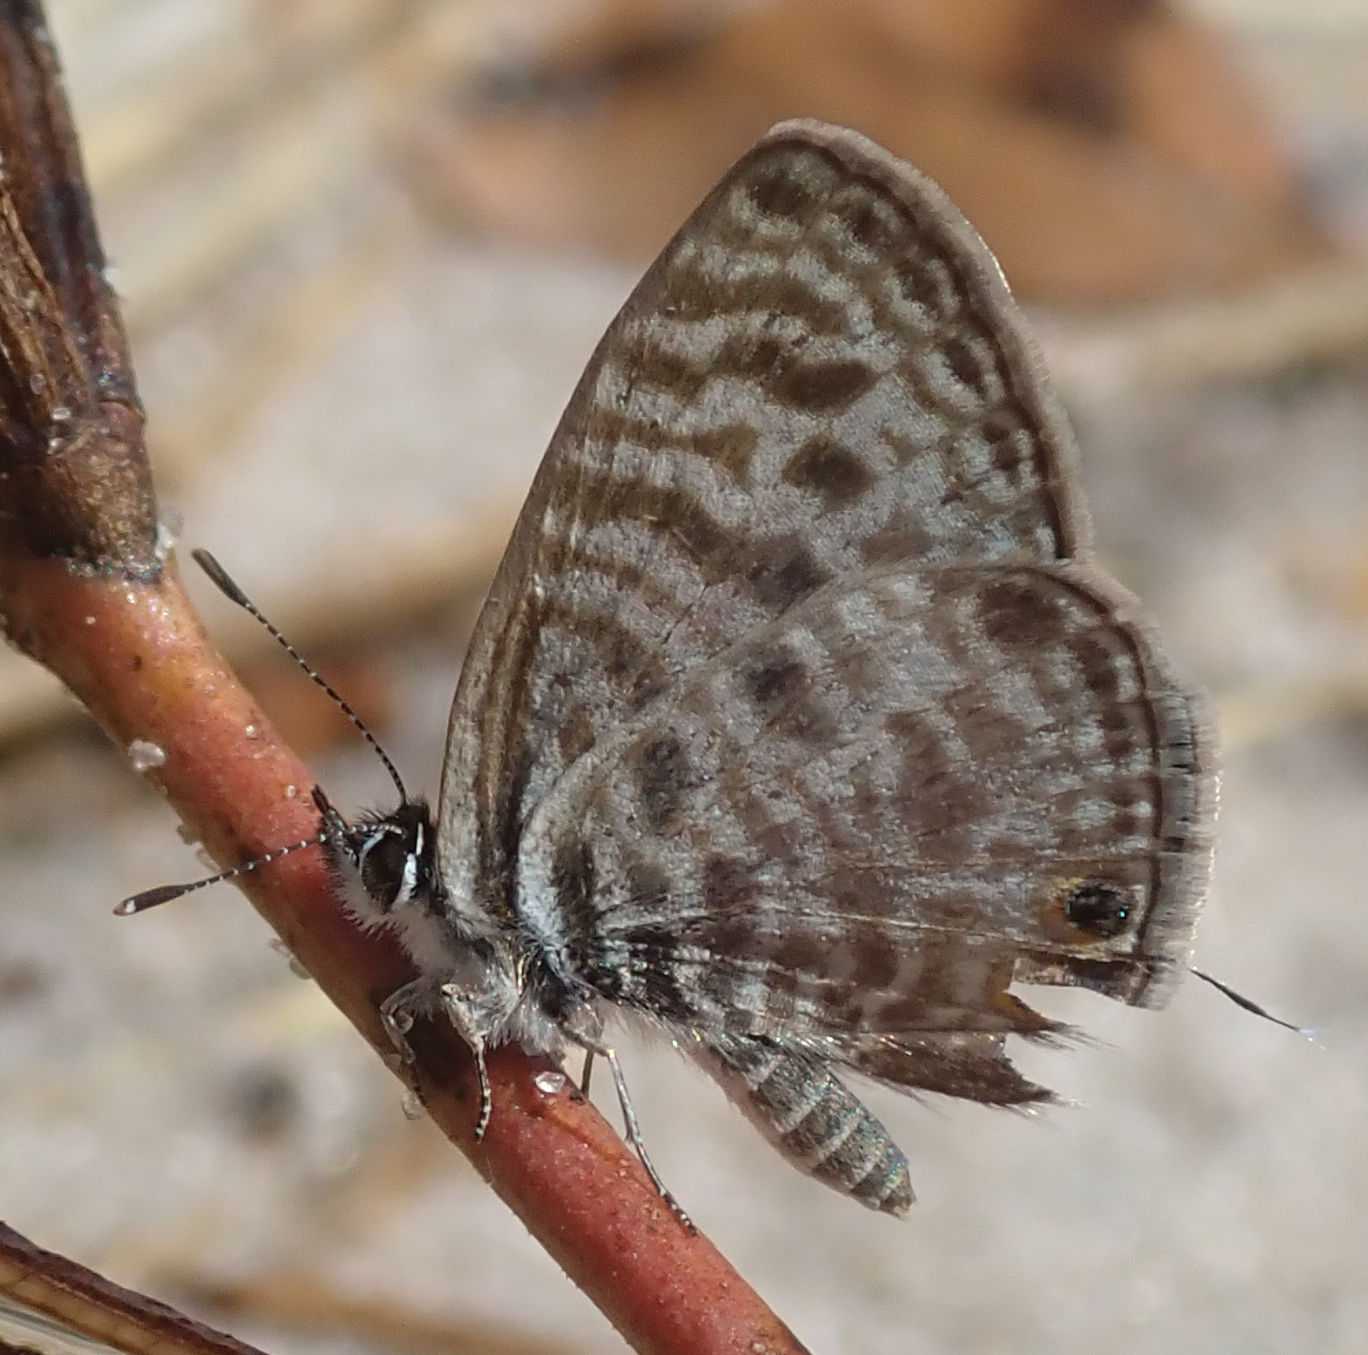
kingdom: Animalia
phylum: Arthropoda
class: Insecta
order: Lepidoptera
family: Lycaenidae
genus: Leptotes
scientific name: Leptotes
